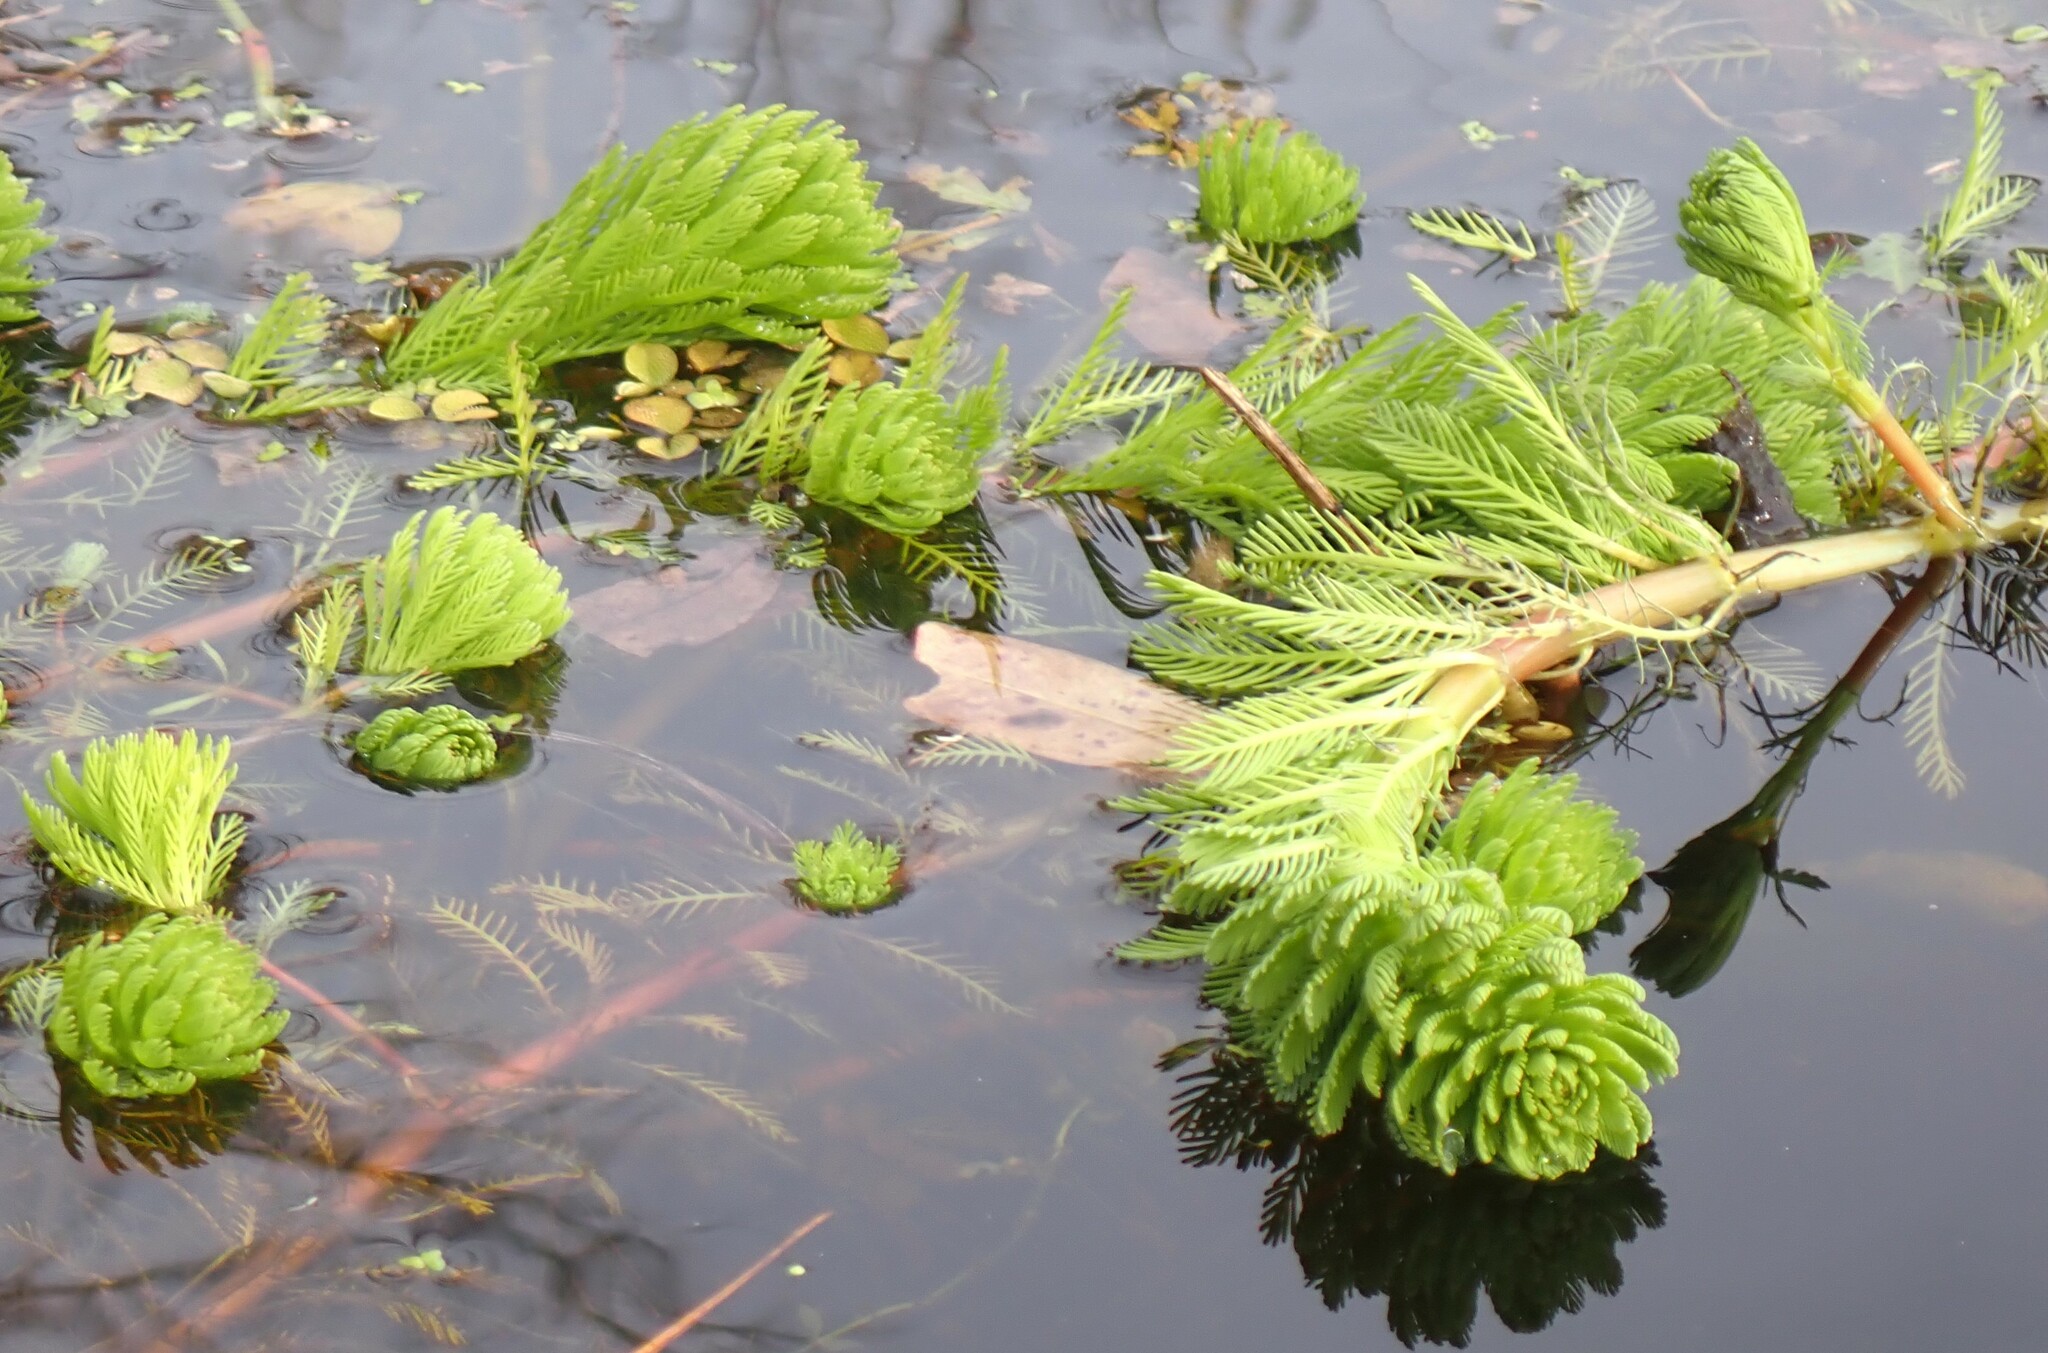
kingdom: Plantae
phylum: Tracheophyta
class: Magnoliopsida
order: Saxifragales
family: Haloragaceae
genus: Myriophyllum
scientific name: Myriophyllum aquaticum
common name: Parrot's feather
